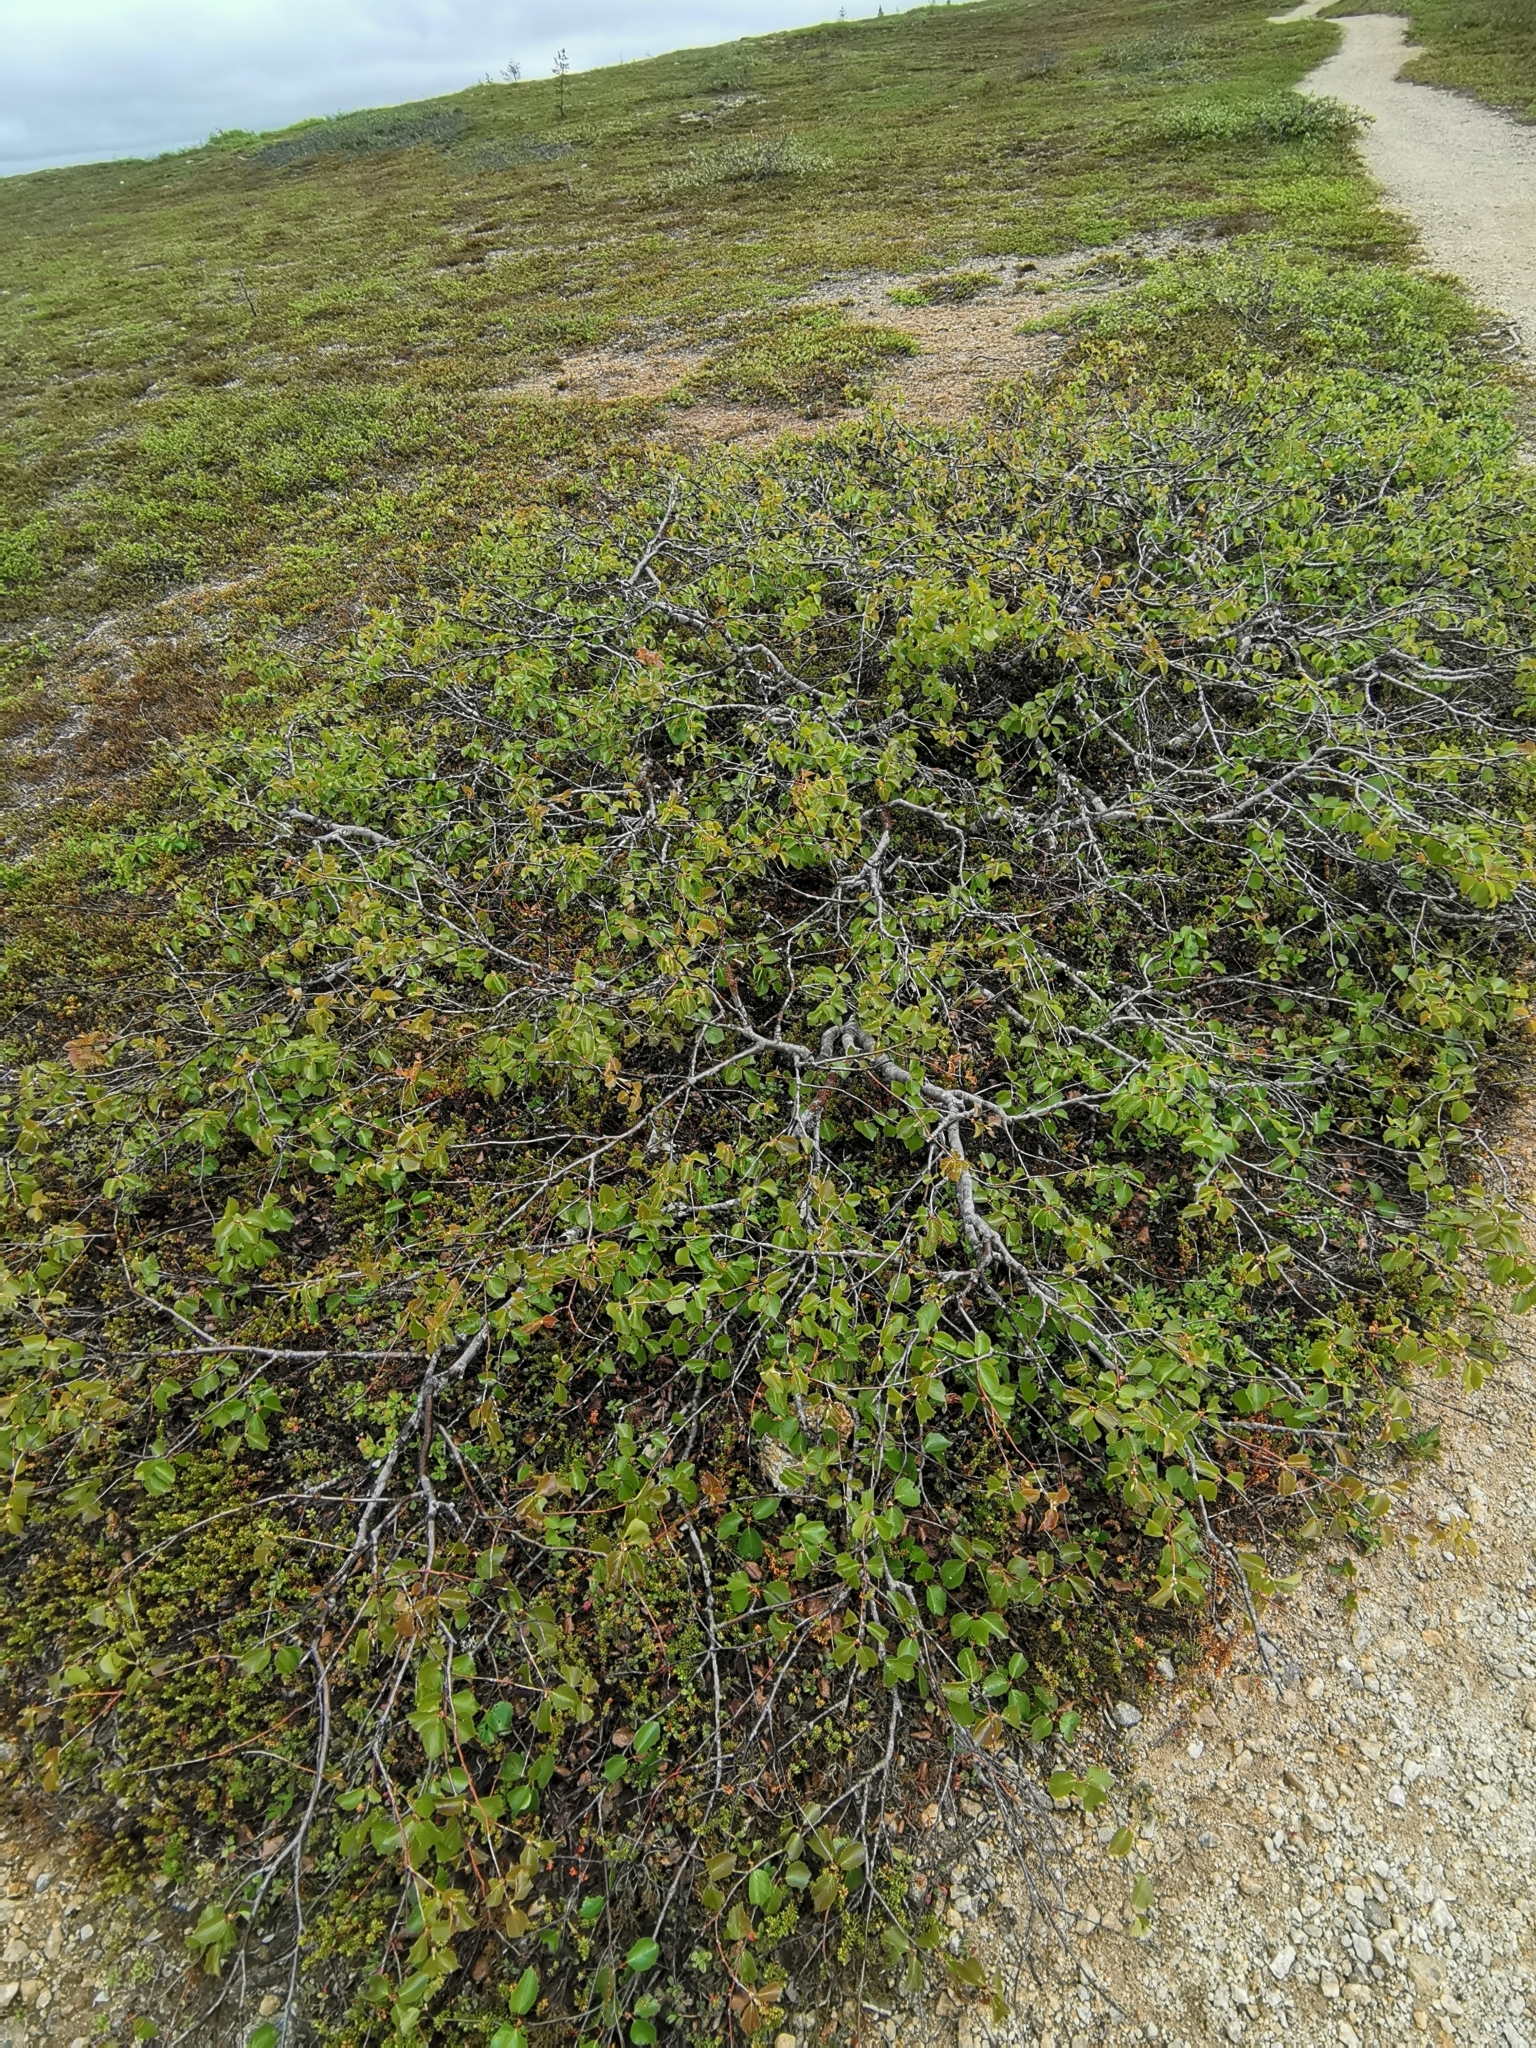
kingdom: Plantae
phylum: Tracheophyta
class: Magnoliopsida
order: Fagales
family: Betulaceae
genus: Betula
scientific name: Betula pubescens
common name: Downy birch
